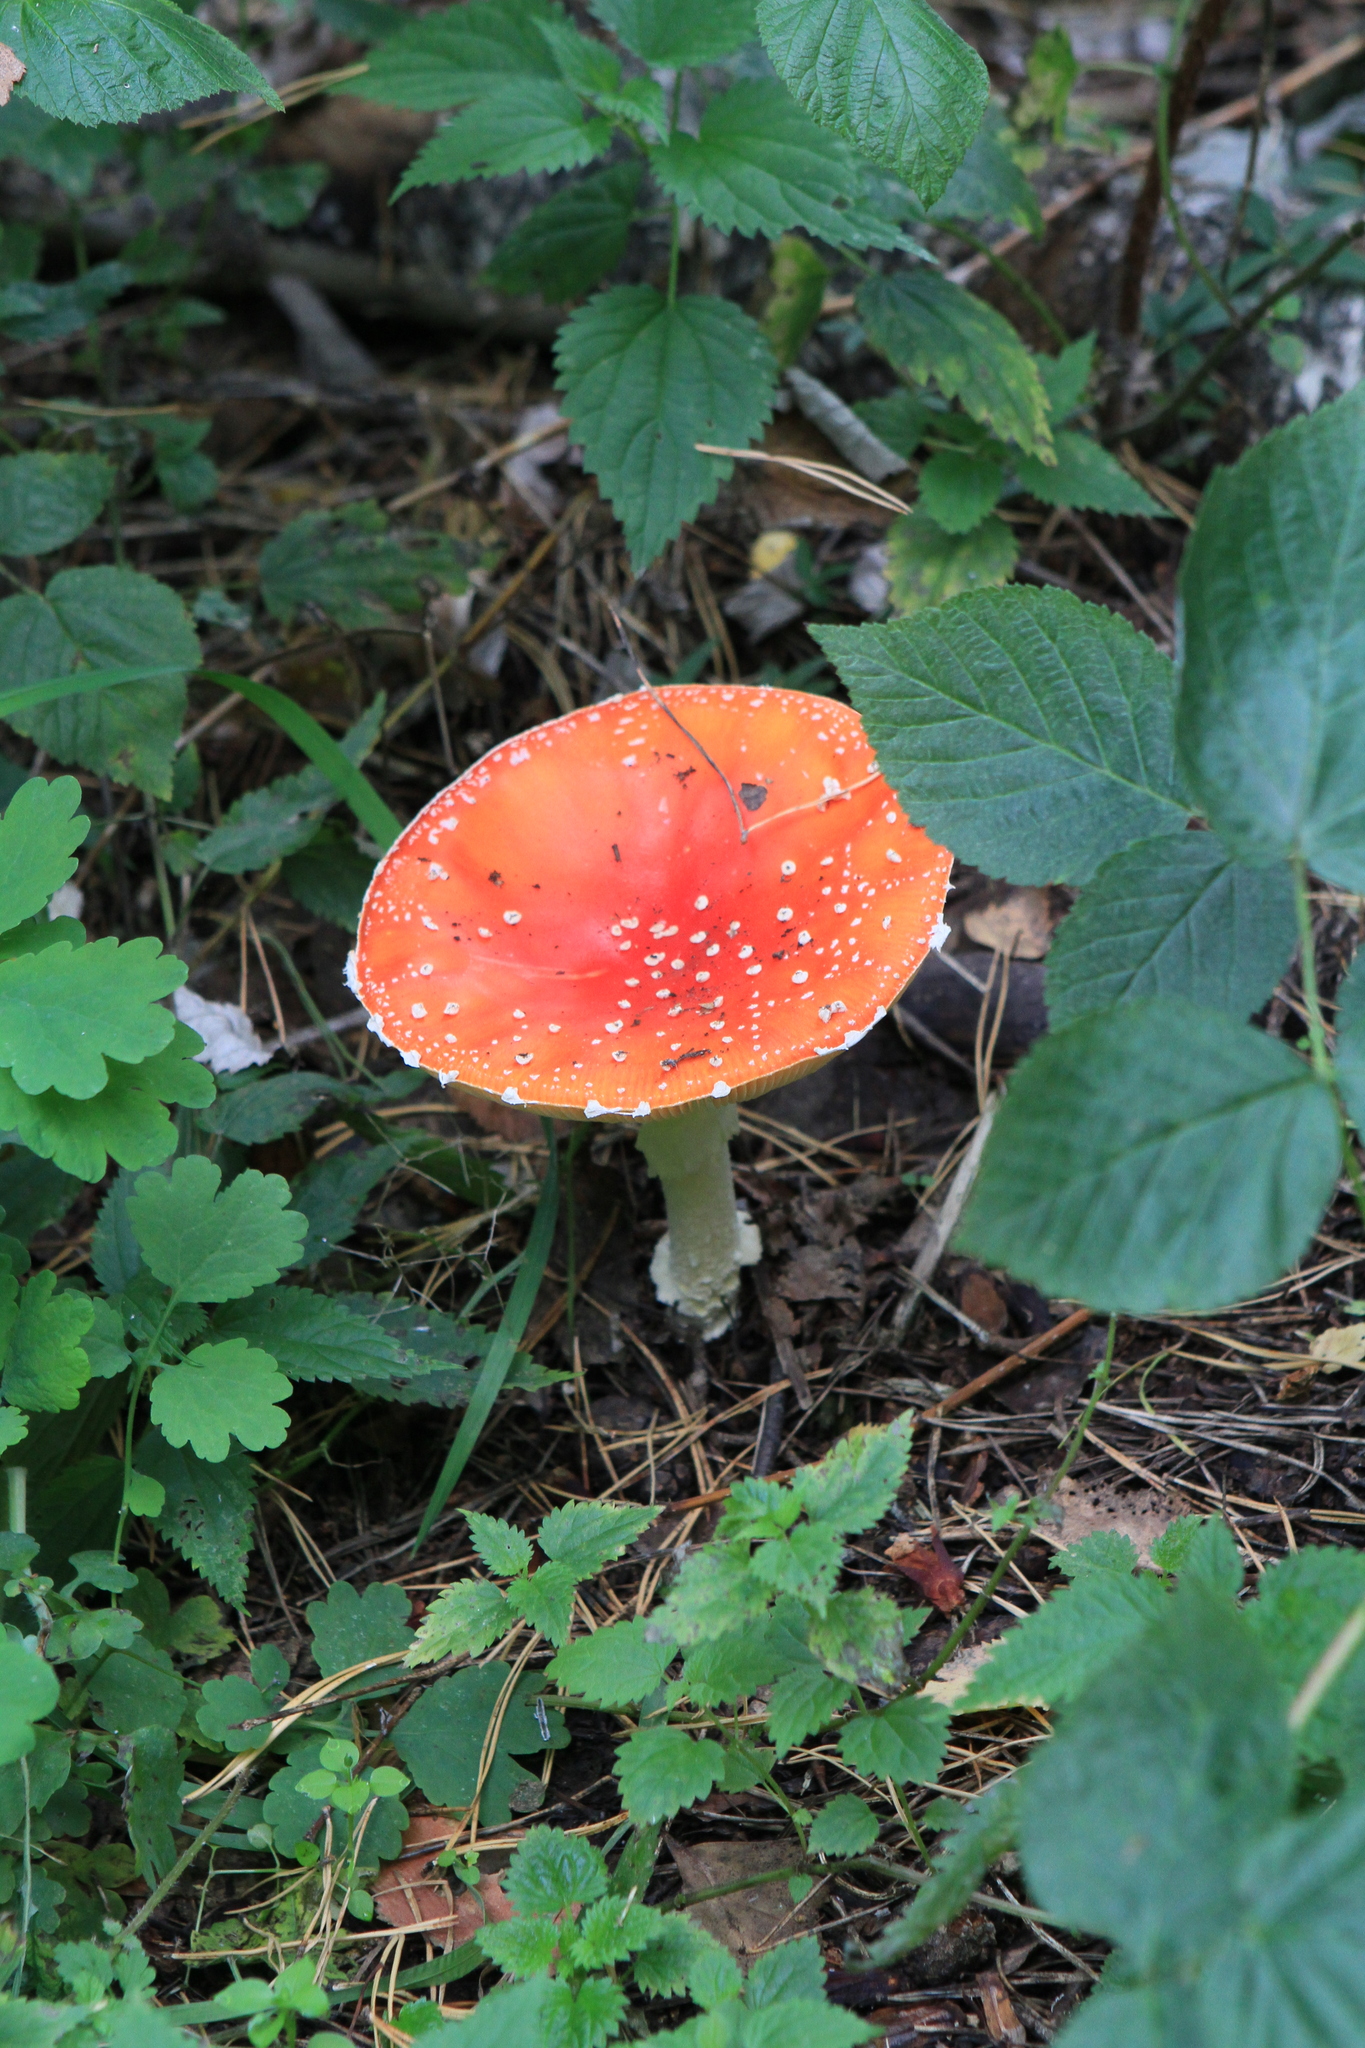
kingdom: Fungi
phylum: Basidiomycota
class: Agaricomycetes
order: Agaricales
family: Amanitaceae
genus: Amanita
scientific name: Amanita muscaria
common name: Fly agaric
